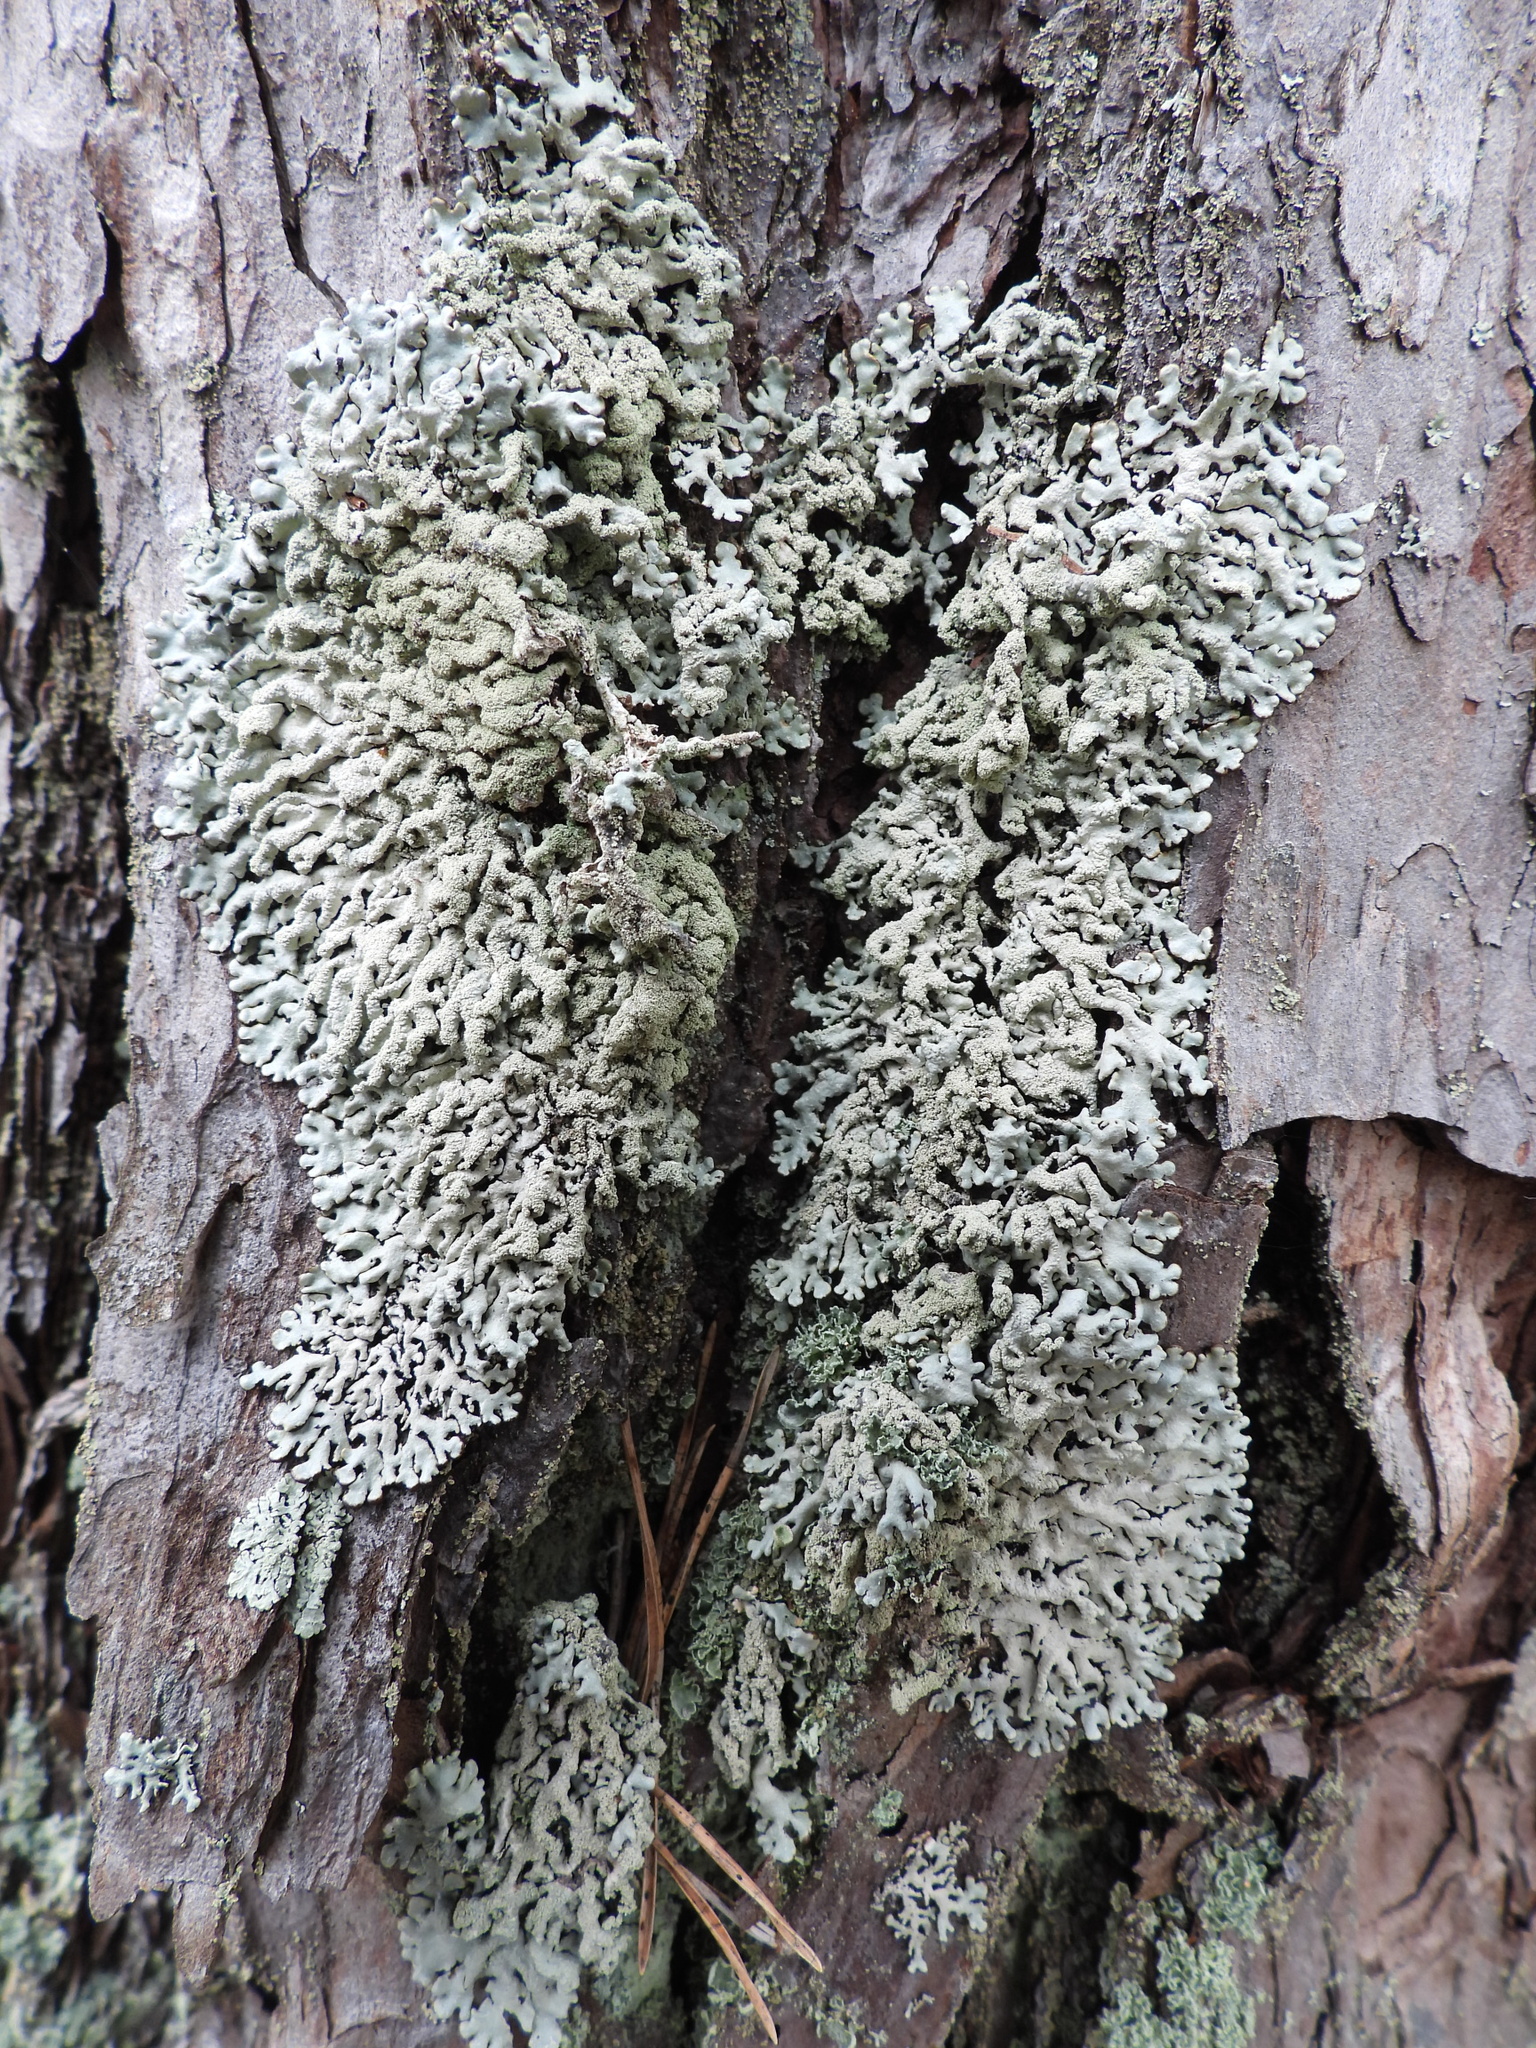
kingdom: Fungi
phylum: Ascomycota
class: Lecanoromycetes
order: Lecanorales
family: Parmeliaceae
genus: Hypogymnia
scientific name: Hypogymnia farinacea
